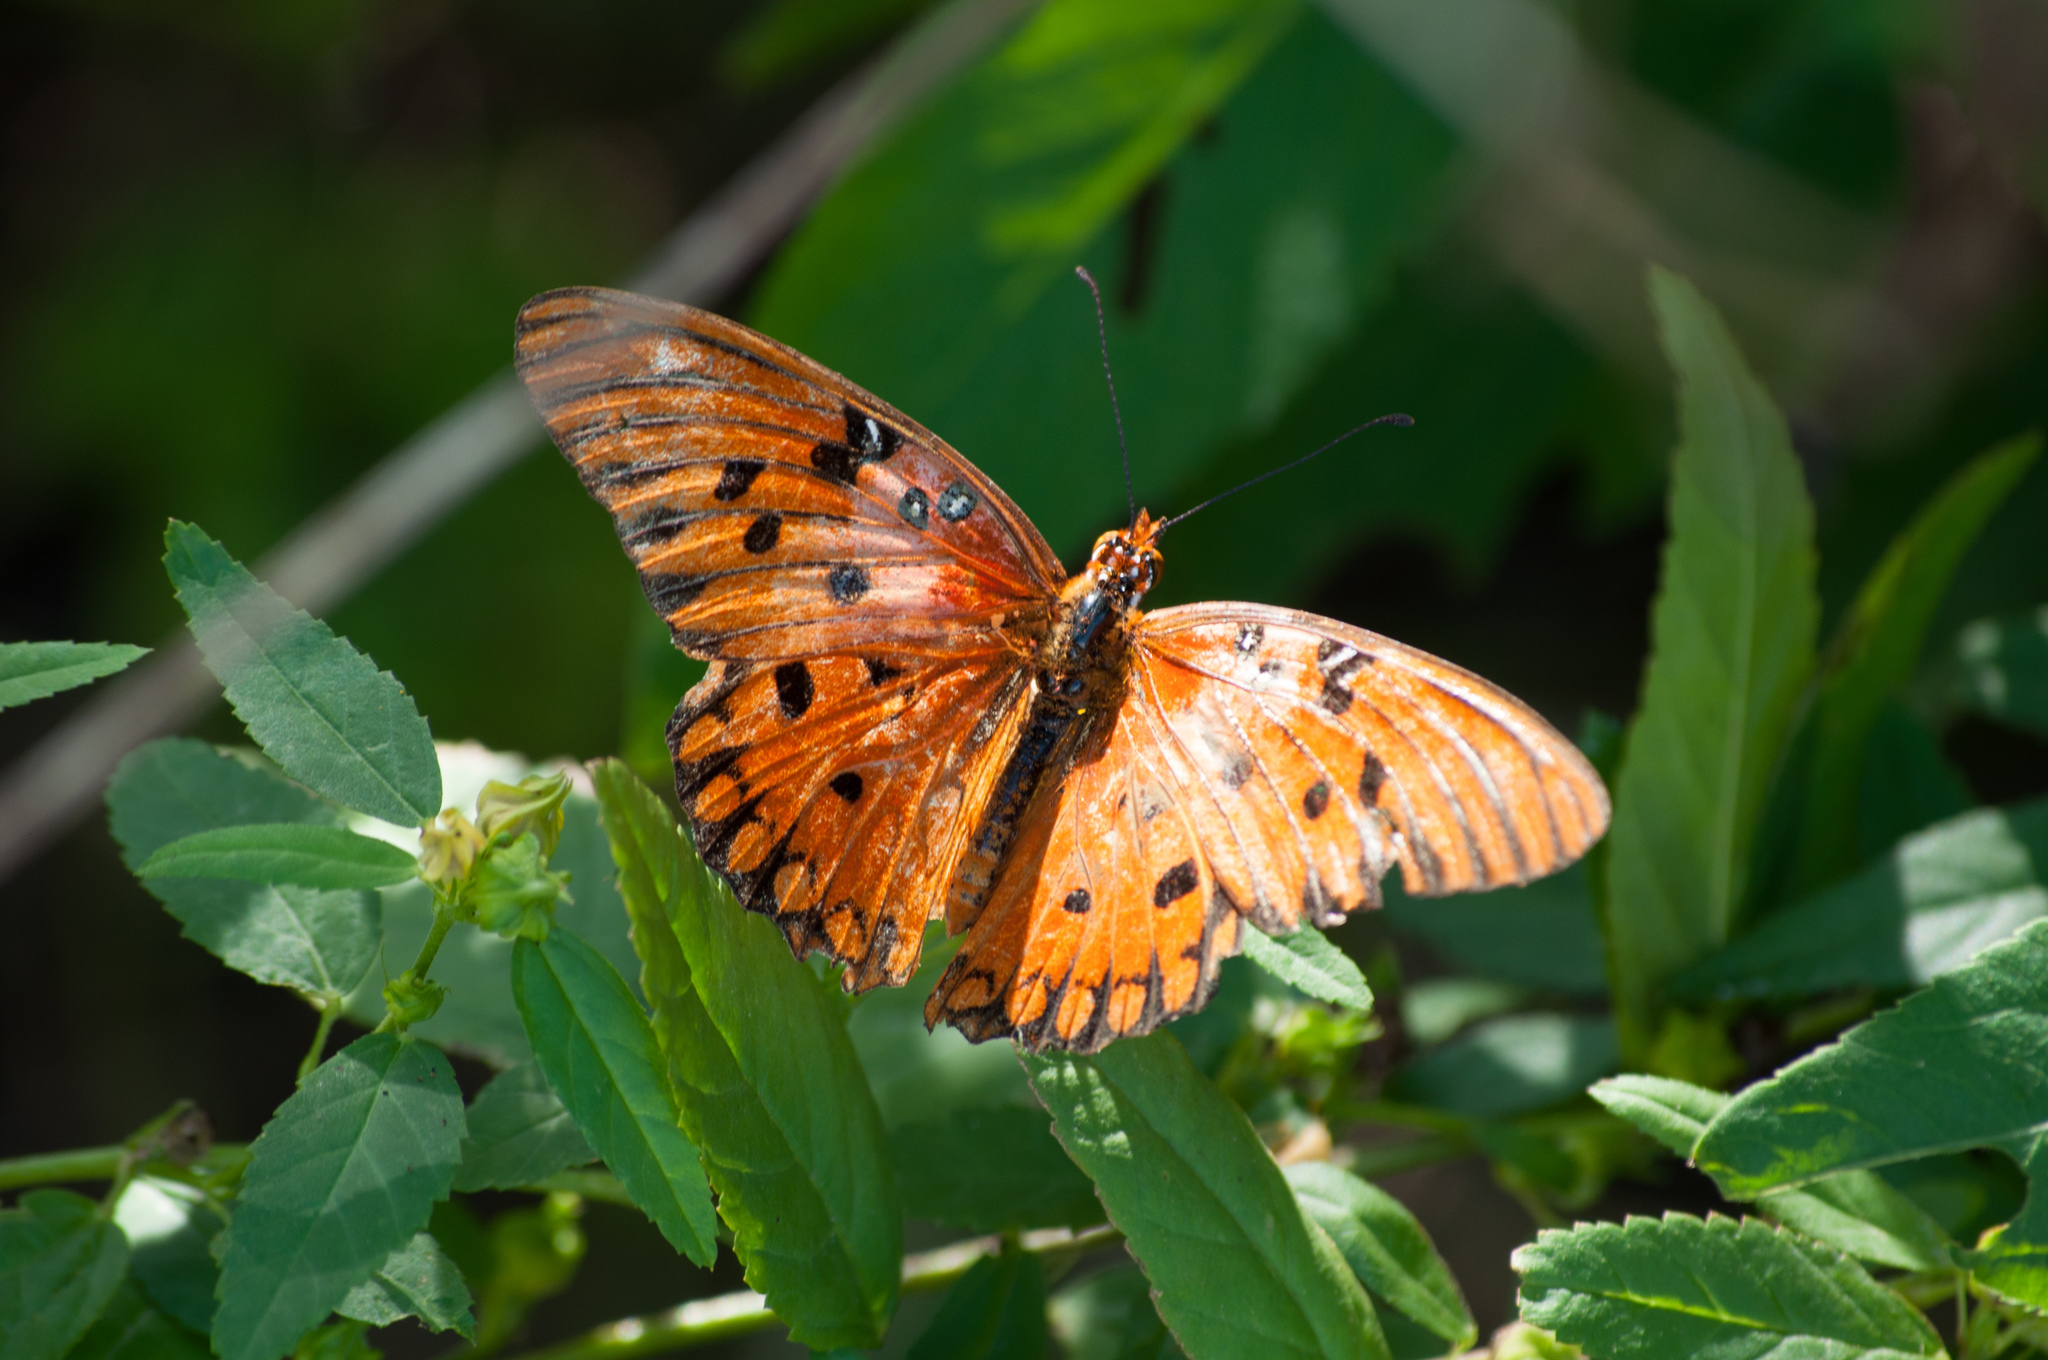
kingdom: Animalia
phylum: Arthropoda
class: Insecta
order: Lepidoptera
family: Nymphalidae
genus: Dione
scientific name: Dione vanillae
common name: Gulf fritillary
